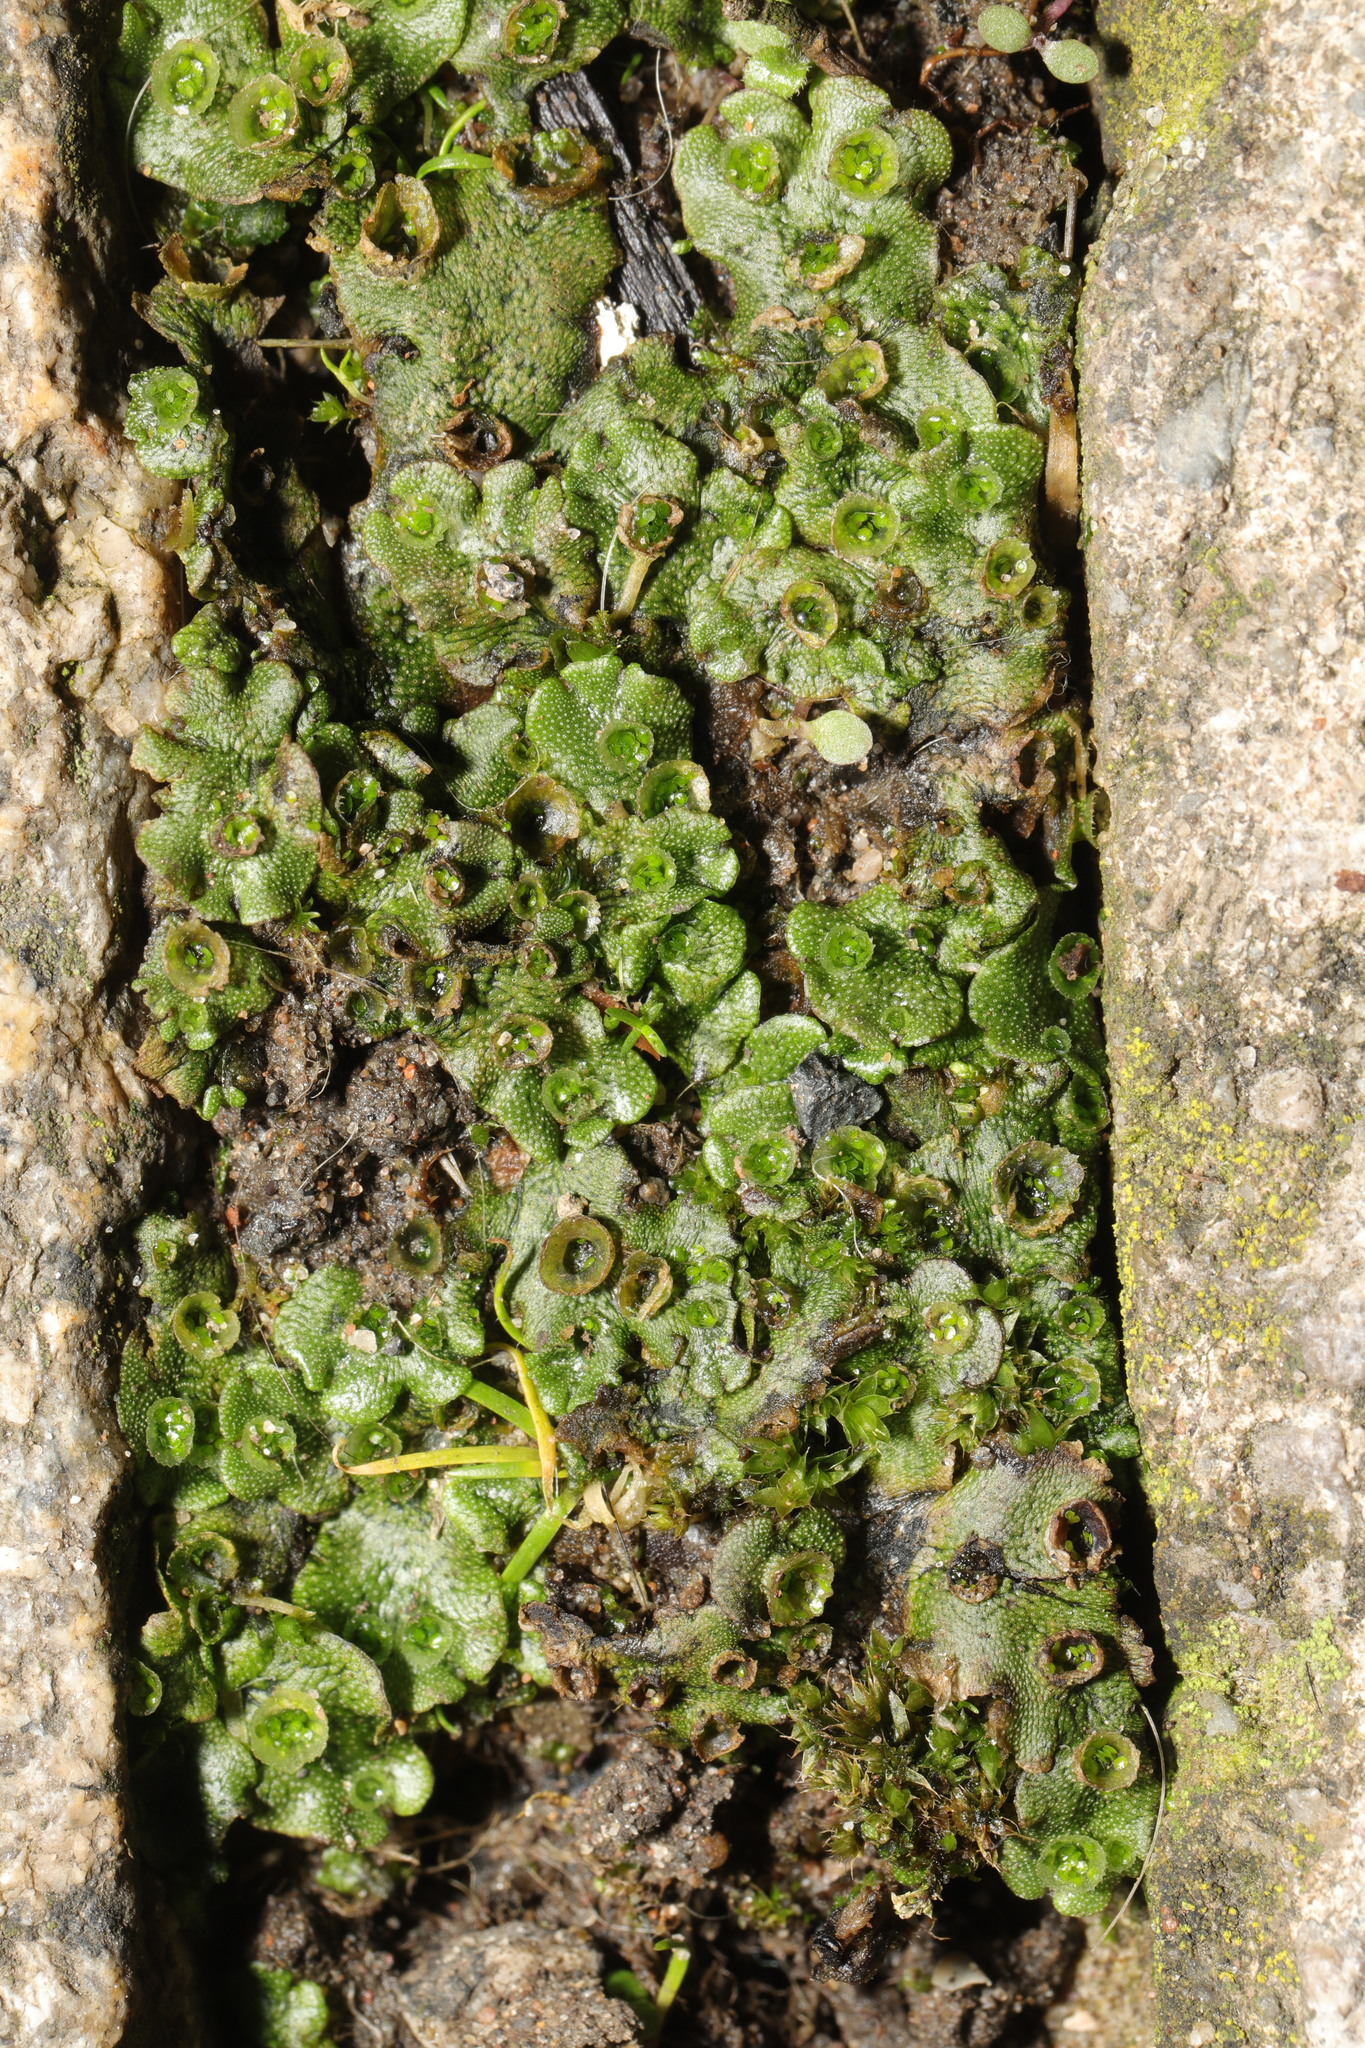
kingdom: Plantae
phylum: Marchantiophyta
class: Marchantiopsida
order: Marchantiales
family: Marchantiaceae
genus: Marchantia
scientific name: Marchantia polymorpha
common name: Common liverwort
